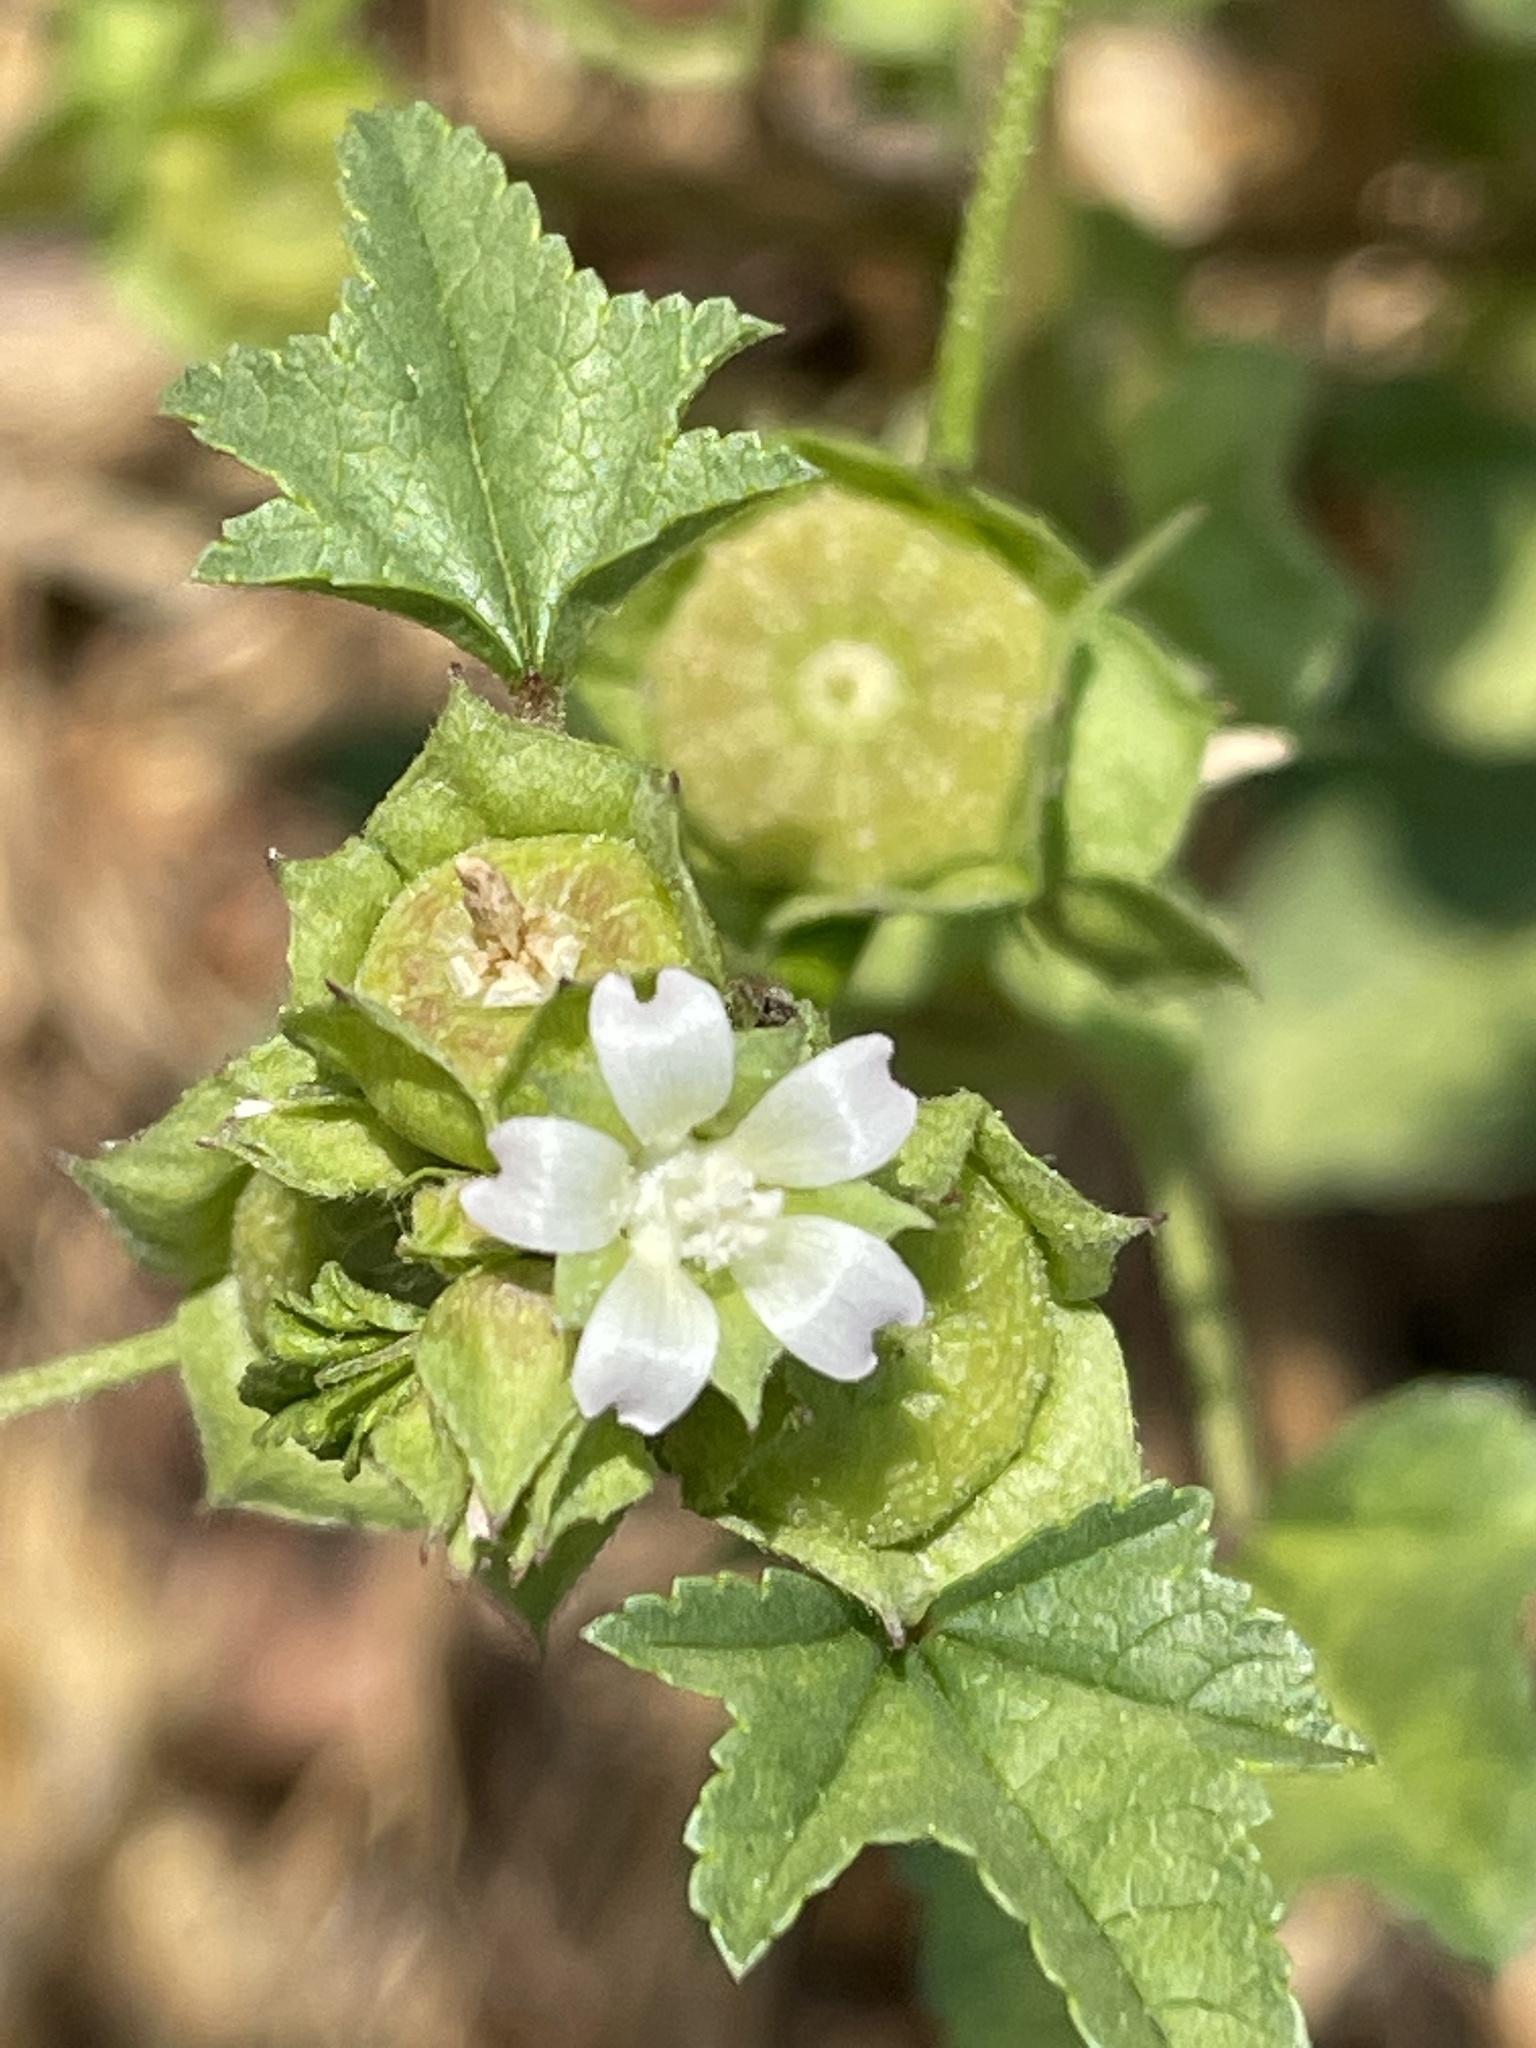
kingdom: Plantae
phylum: Tracheophyta
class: Magnoliopsida
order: Malvales
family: Malvaceae
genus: Malva
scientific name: Malva parviflora
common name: Least mallow
